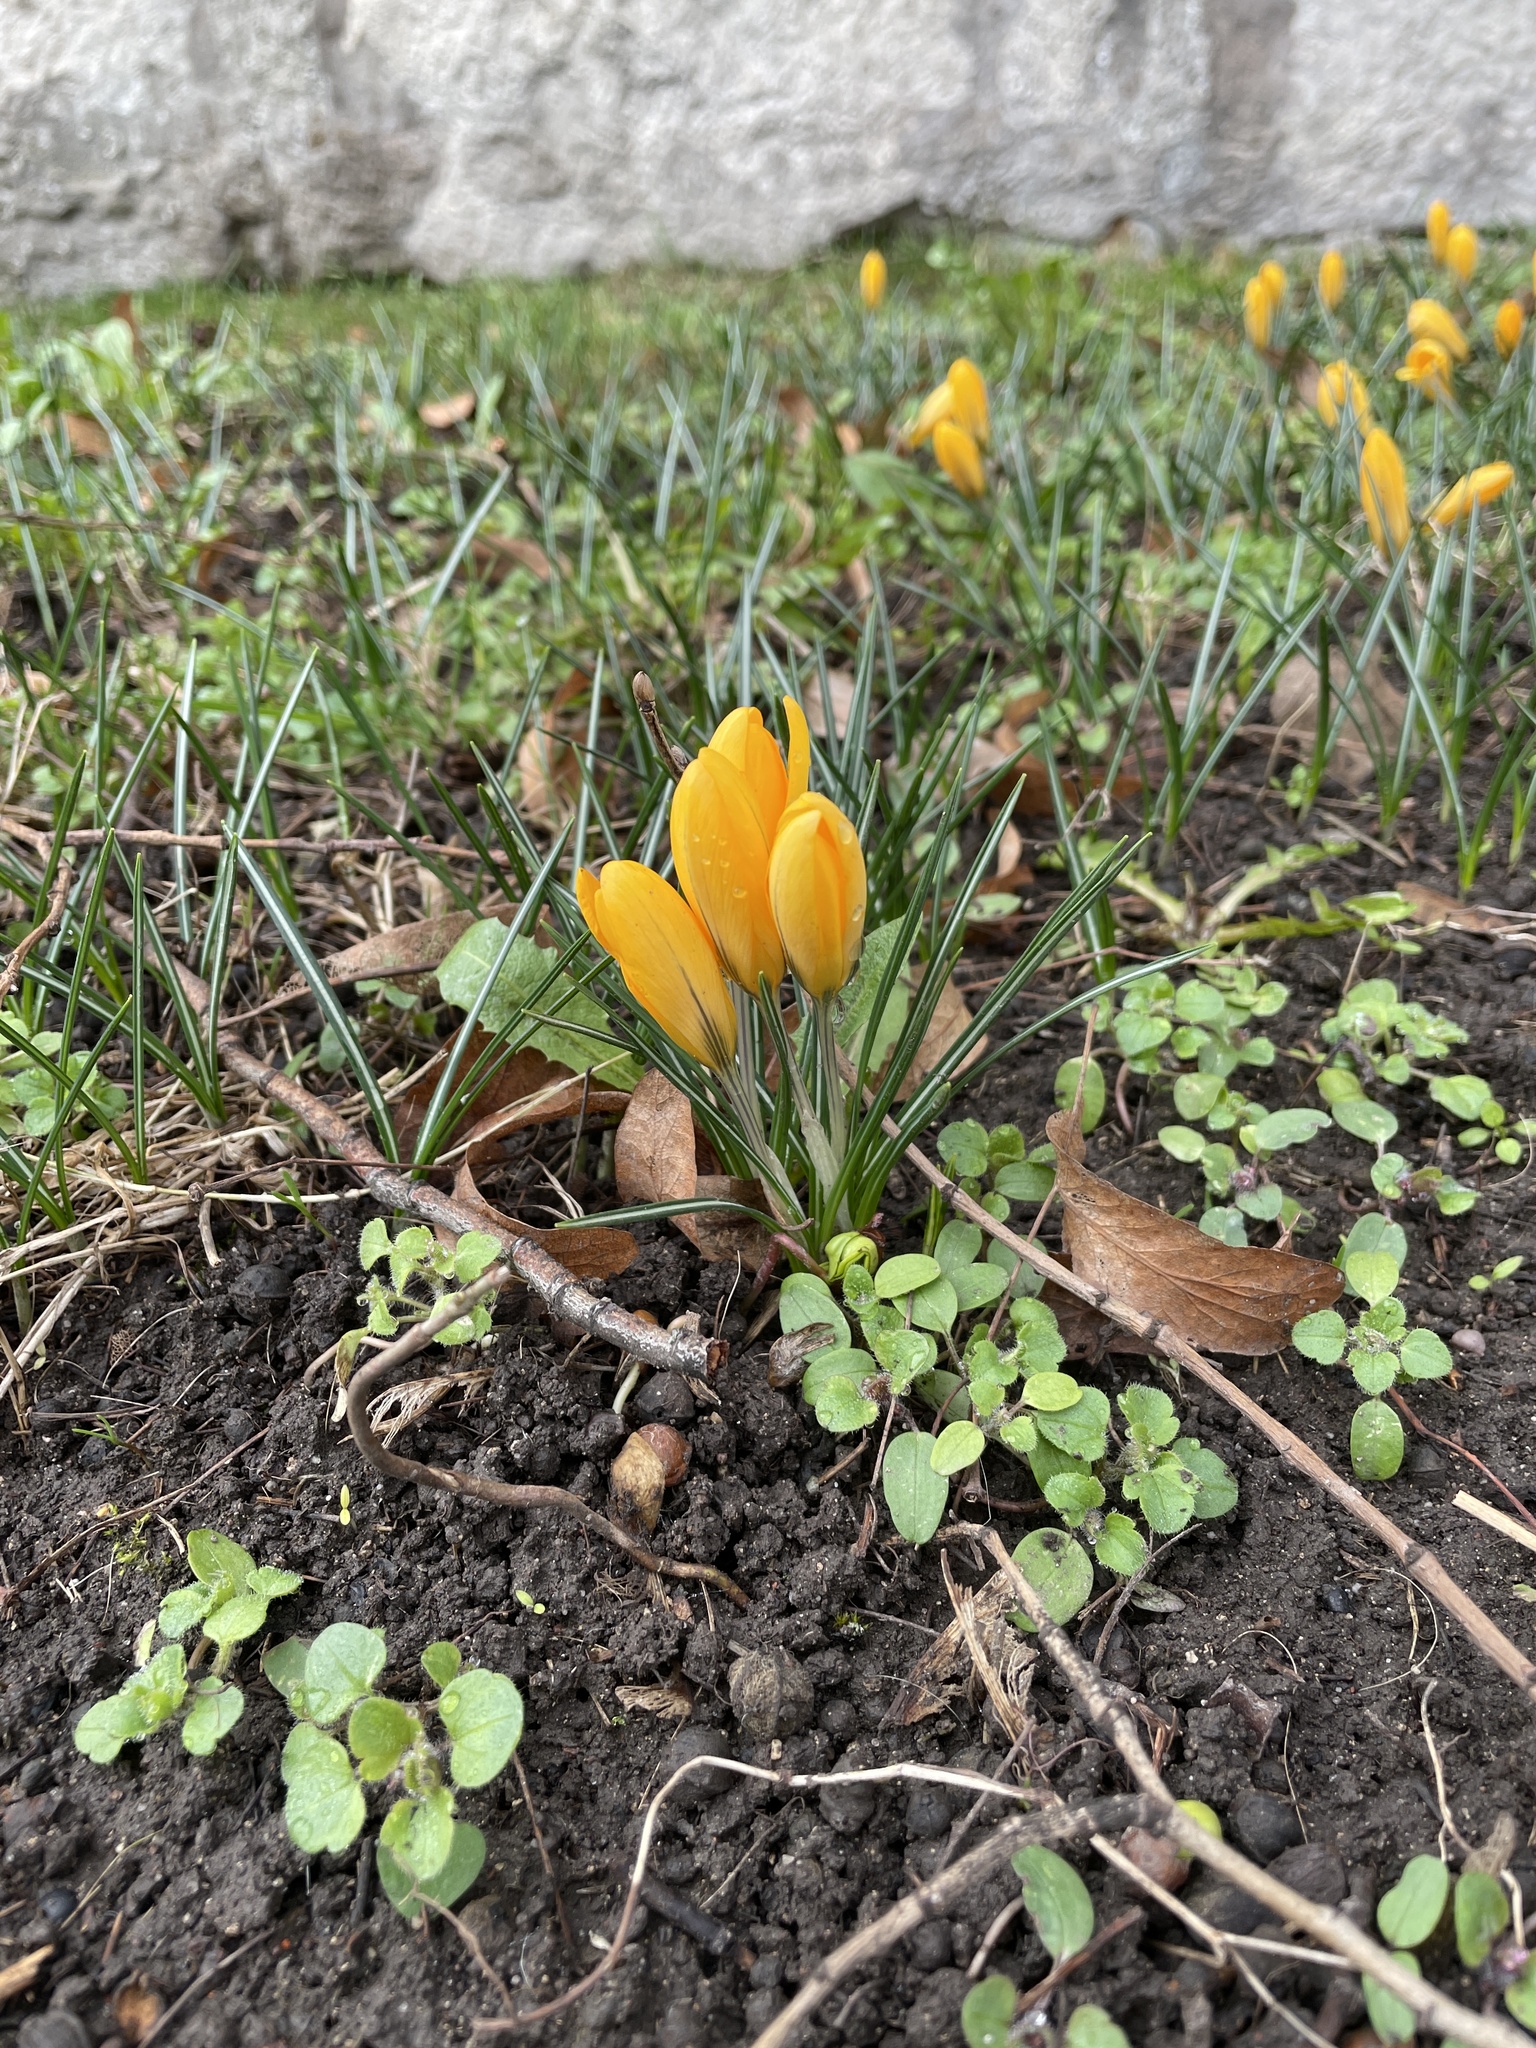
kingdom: Plantae
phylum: Tracheophyta
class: Liliopsida
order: Asparagales
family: Iridaceae
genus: Crocus
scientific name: Crocus luteus
